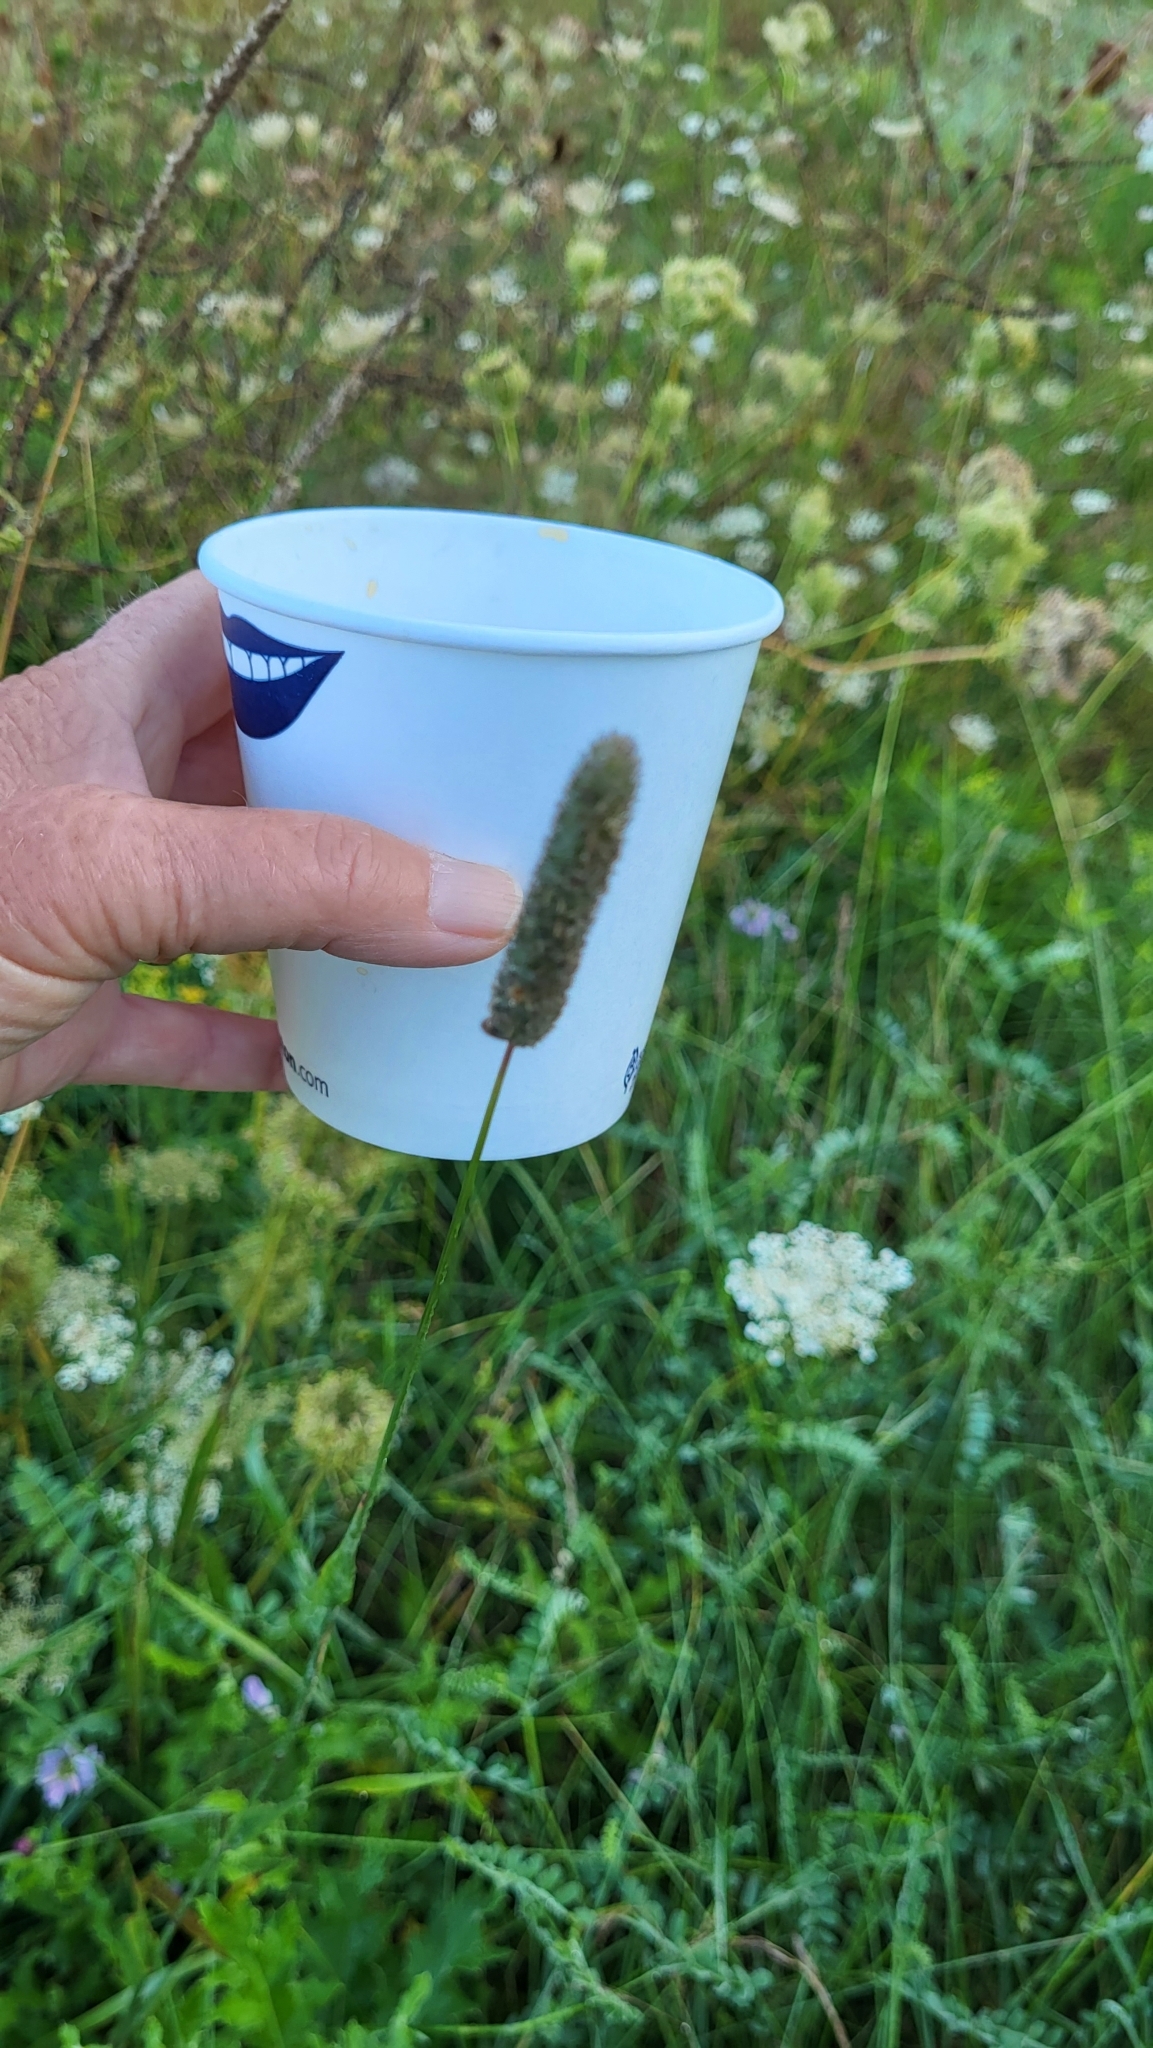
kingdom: Plantae
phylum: Tracheophyta
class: Liliopsida
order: Poales
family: Poaceae
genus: Phleum
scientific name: Phleum pratense
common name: Timothy grass
